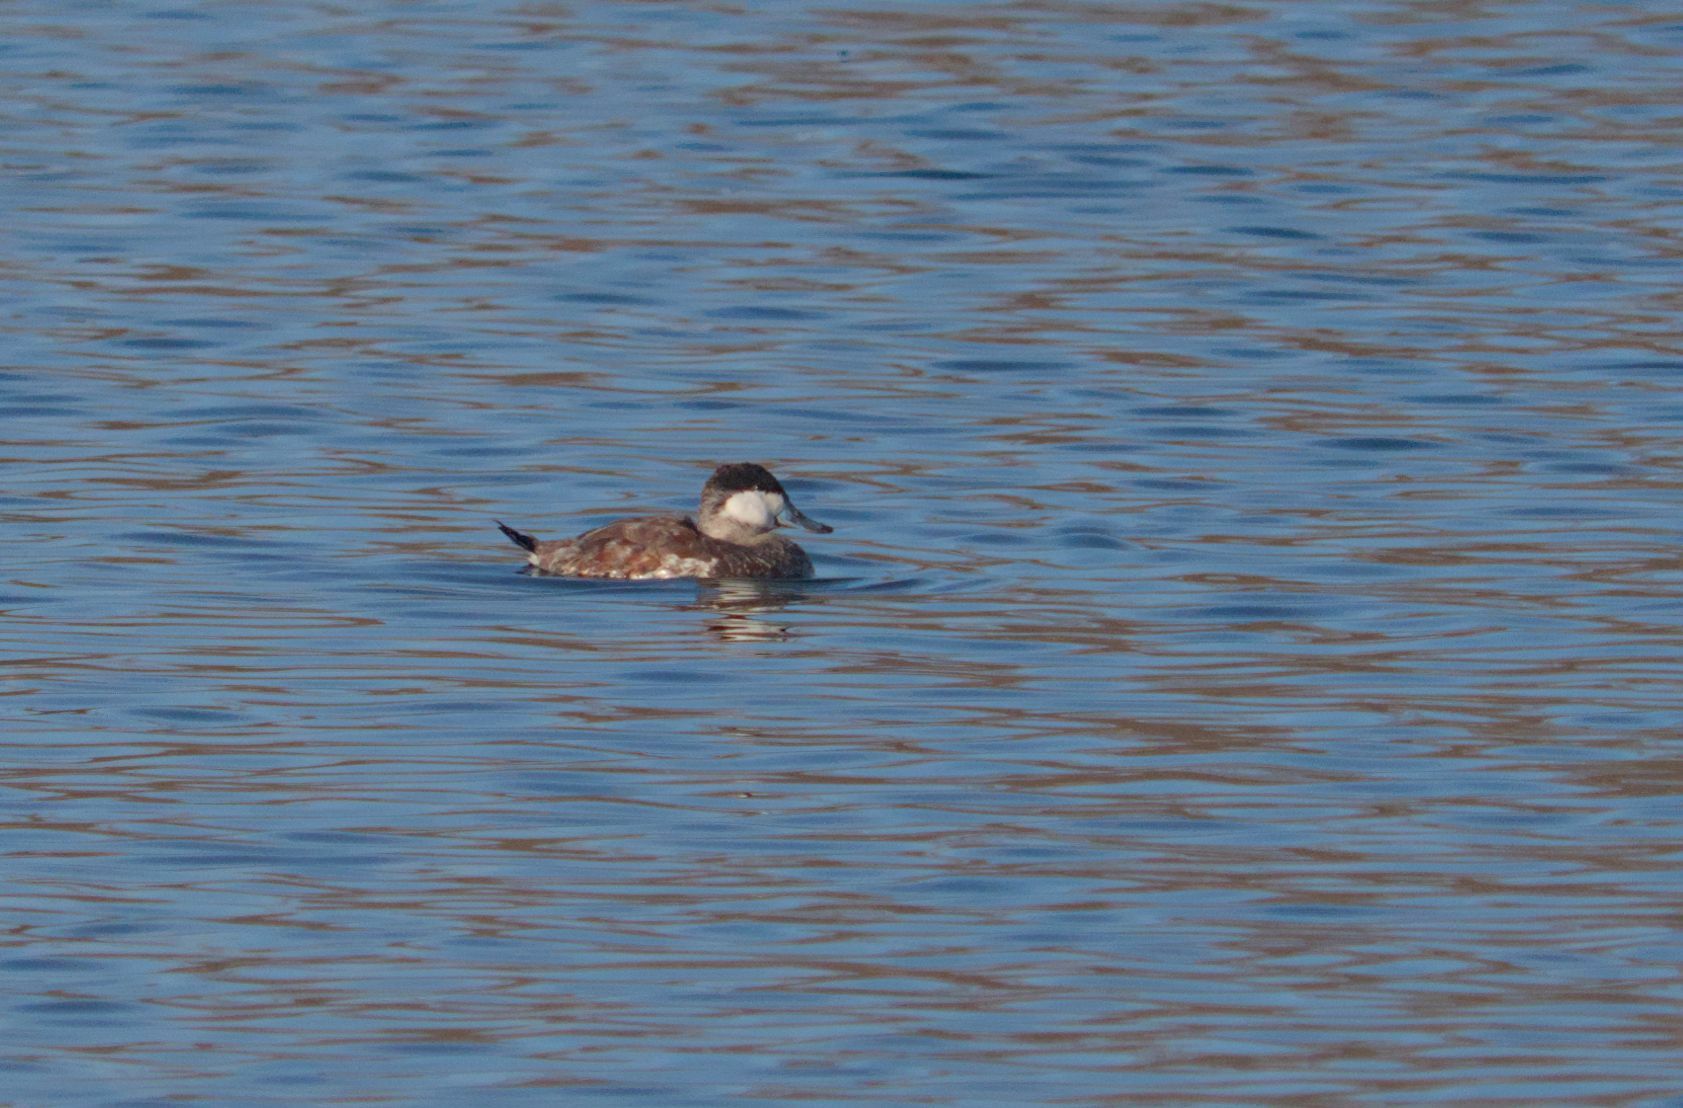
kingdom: Animalia
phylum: Chordata
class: Aves
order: Anseriformes
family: Anatidae
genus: Oxyura
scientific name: Oxyura jamaicensis
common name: Ruddy duck
